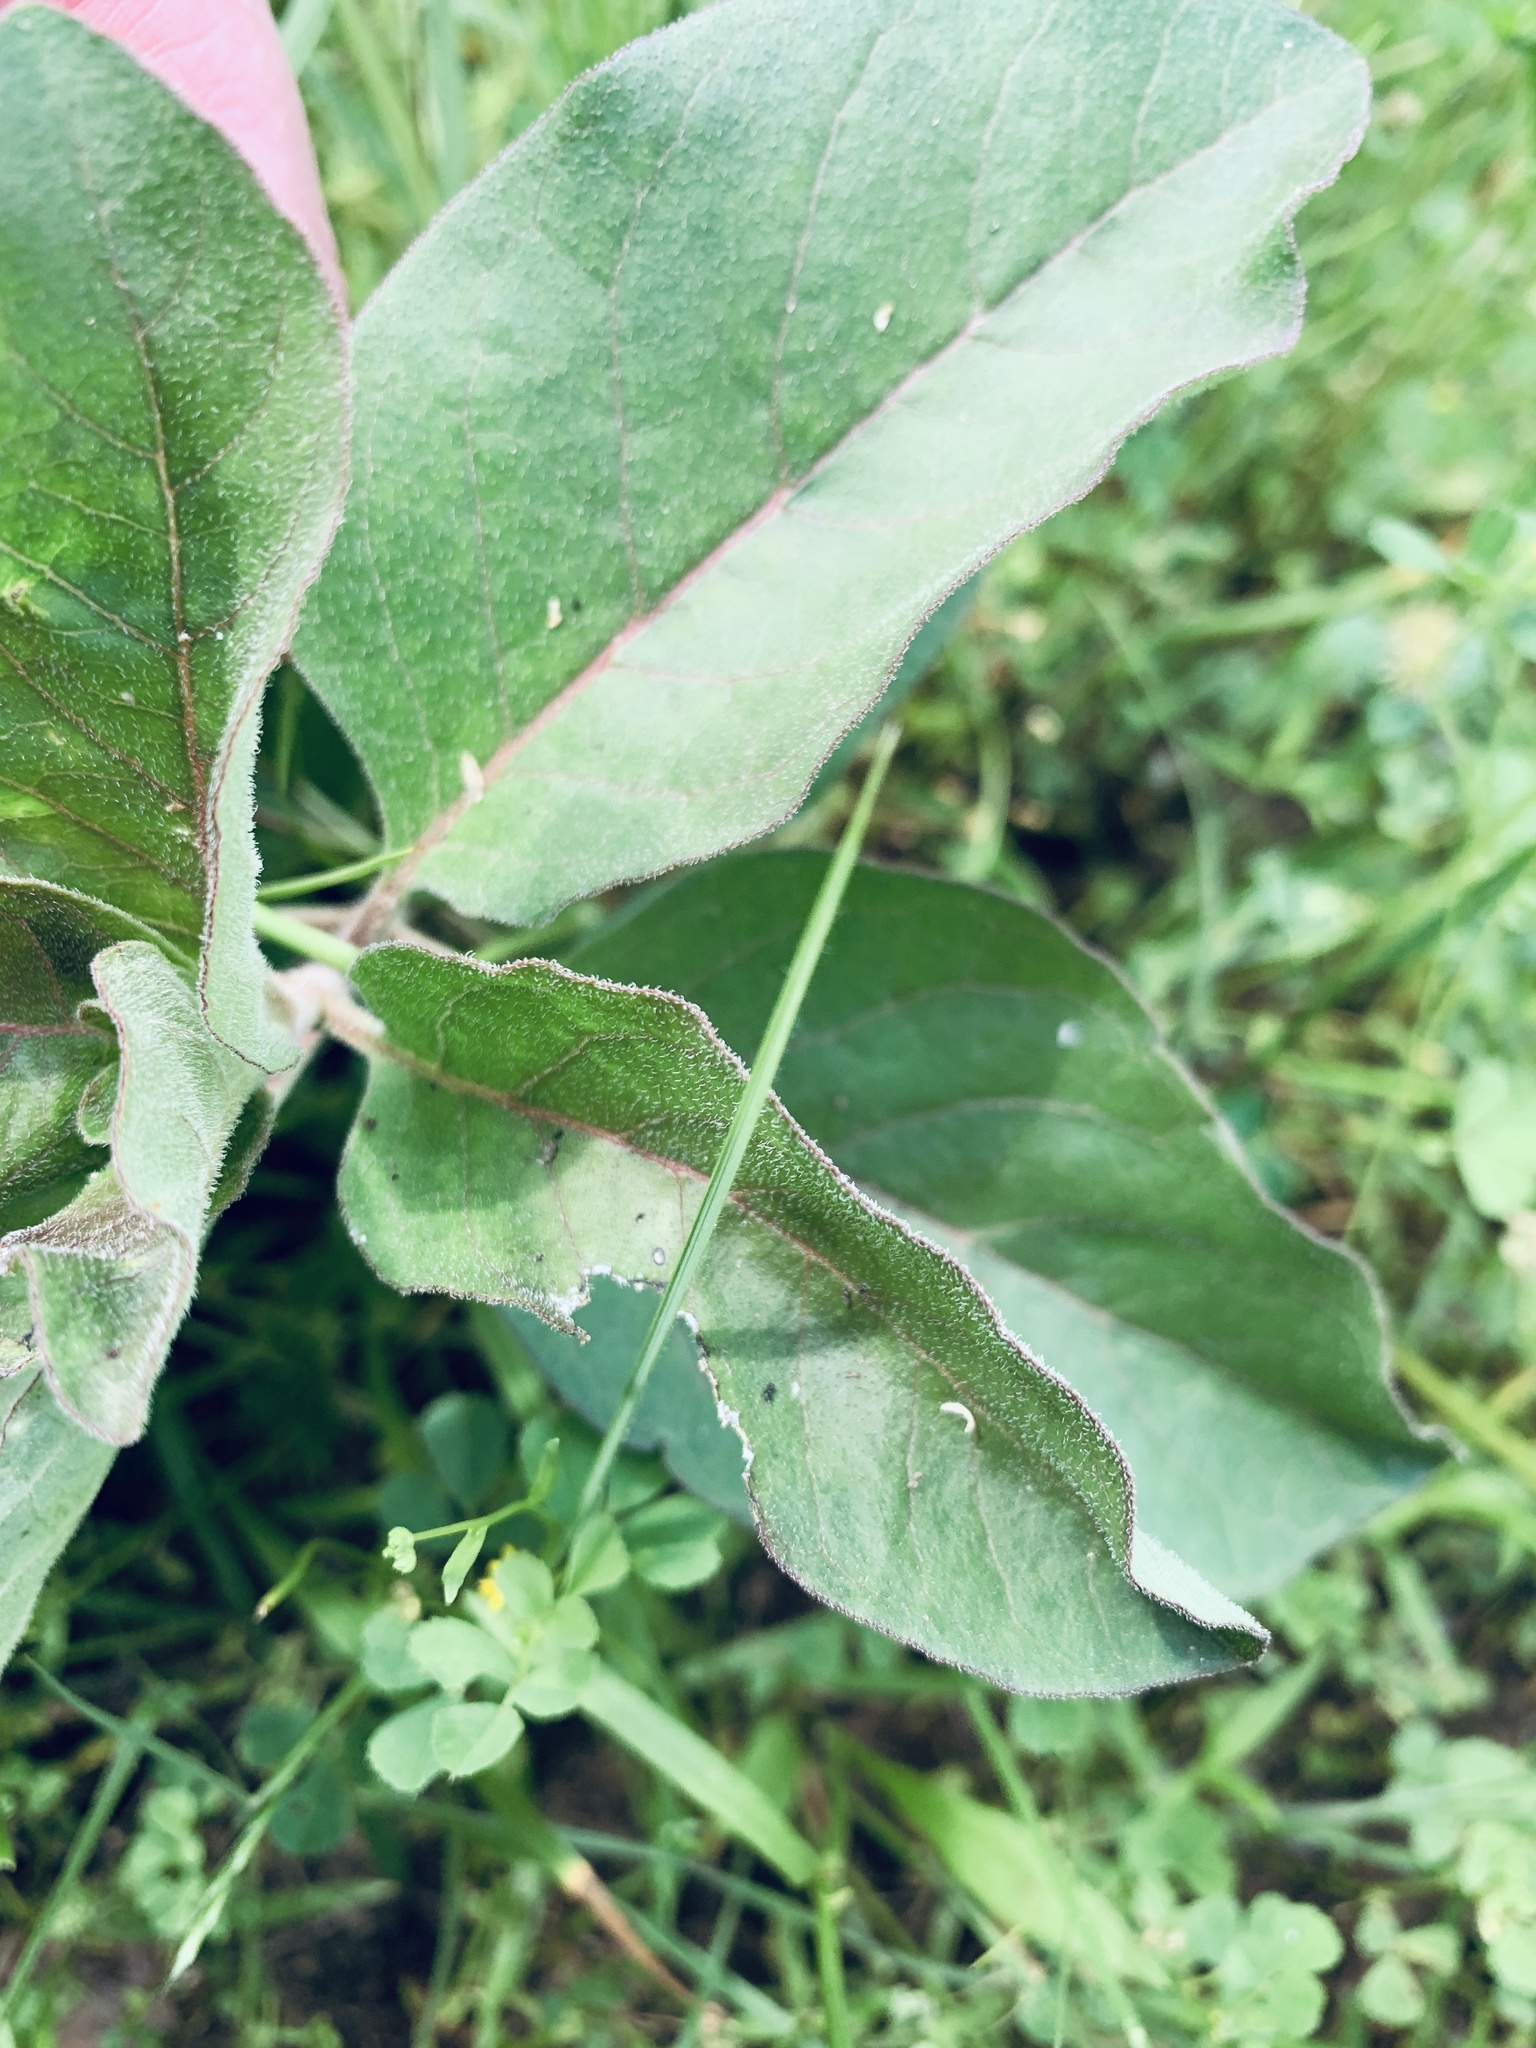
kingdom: Plantae
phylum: Tracheophyta
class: Magnoliopsida
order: Gentianales
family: Apocynaceae
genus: Asclepias
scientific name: Asclepias oenotheroides
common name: Zizotes milkweed
